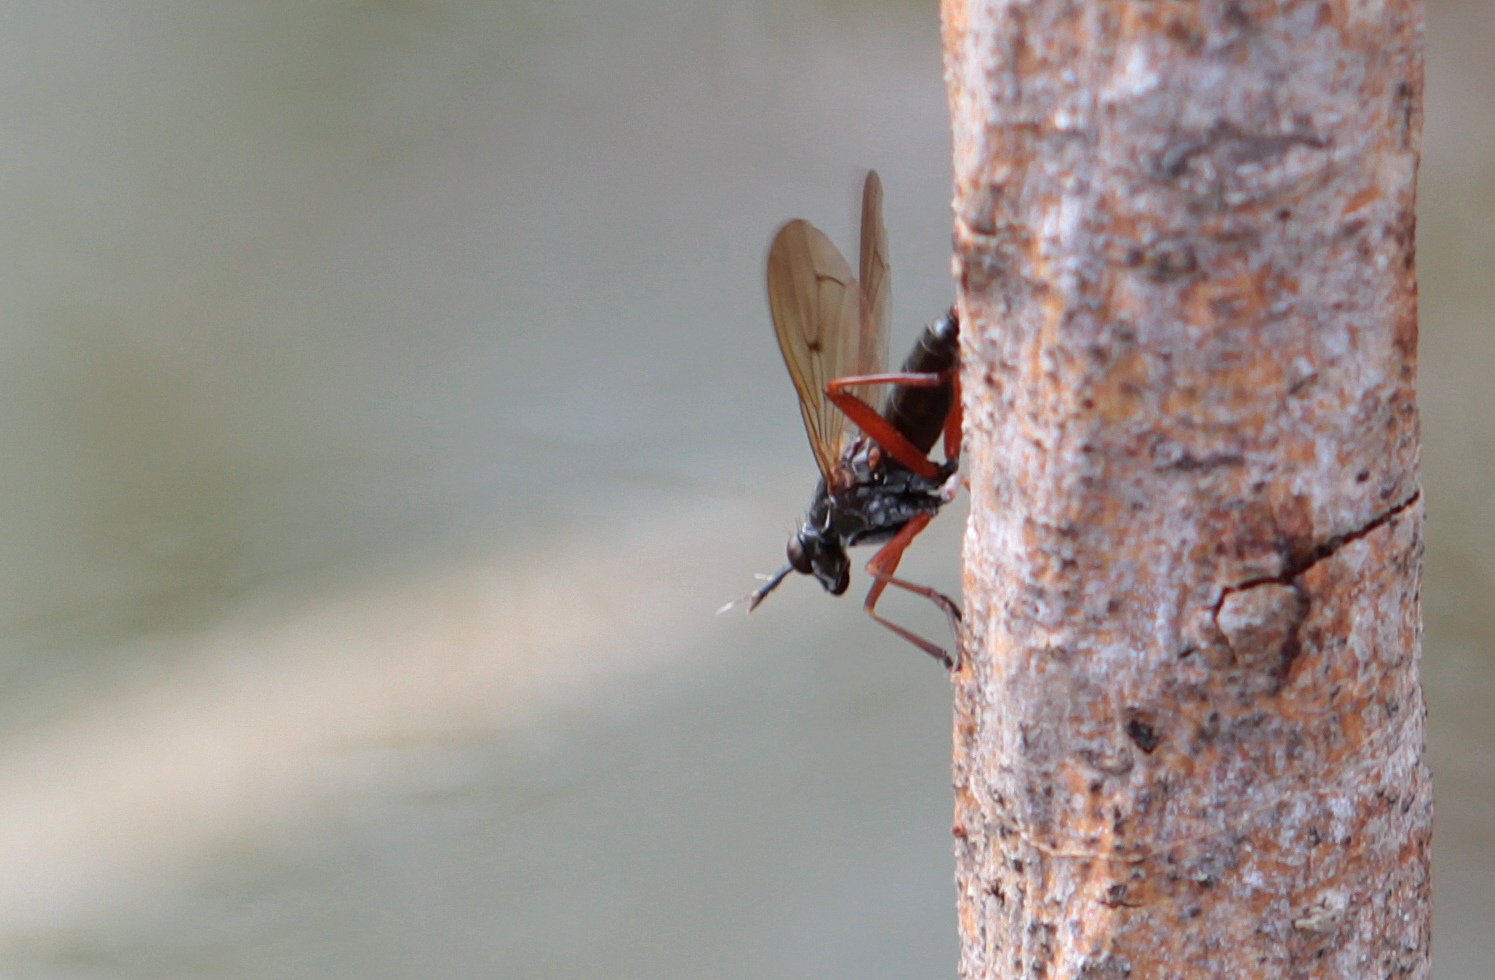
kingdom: Animalia
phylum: Arthropoda
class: Insecta
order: Diptera
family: Sciomyzidae
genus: Sepedon
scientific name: Sepedon sphegea
